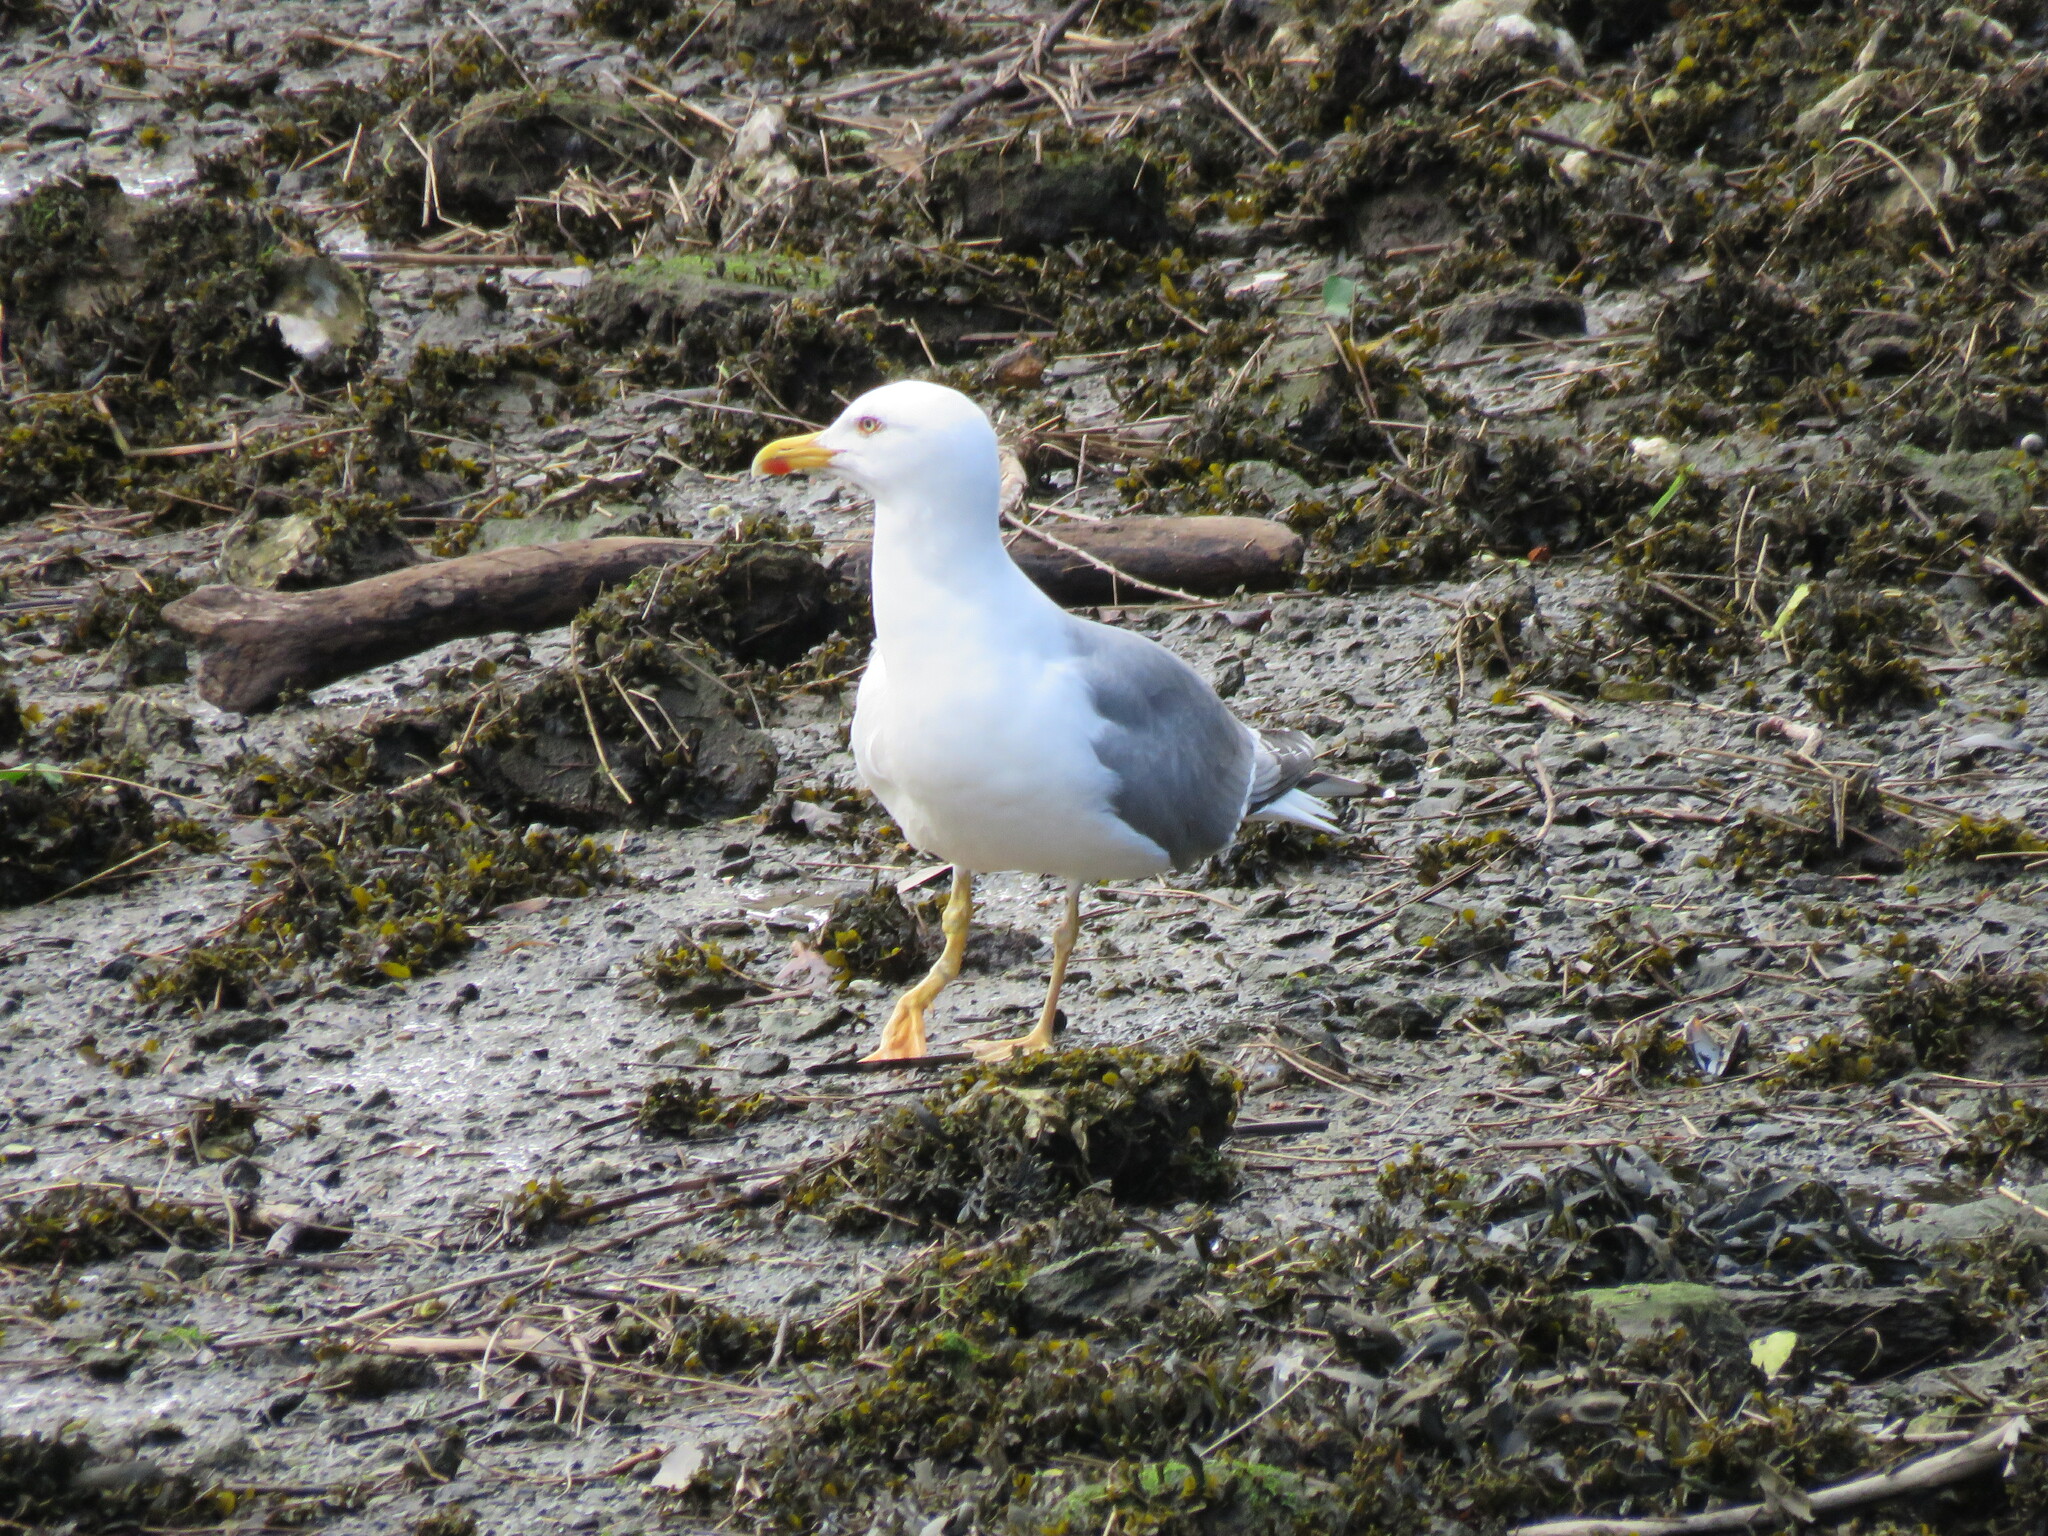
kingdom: Animalia
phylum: Chordata
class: Aves
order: Charadriiformes
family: Laridae
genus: Larus
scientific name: Larus michahellis
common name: Yellow-legged gull
